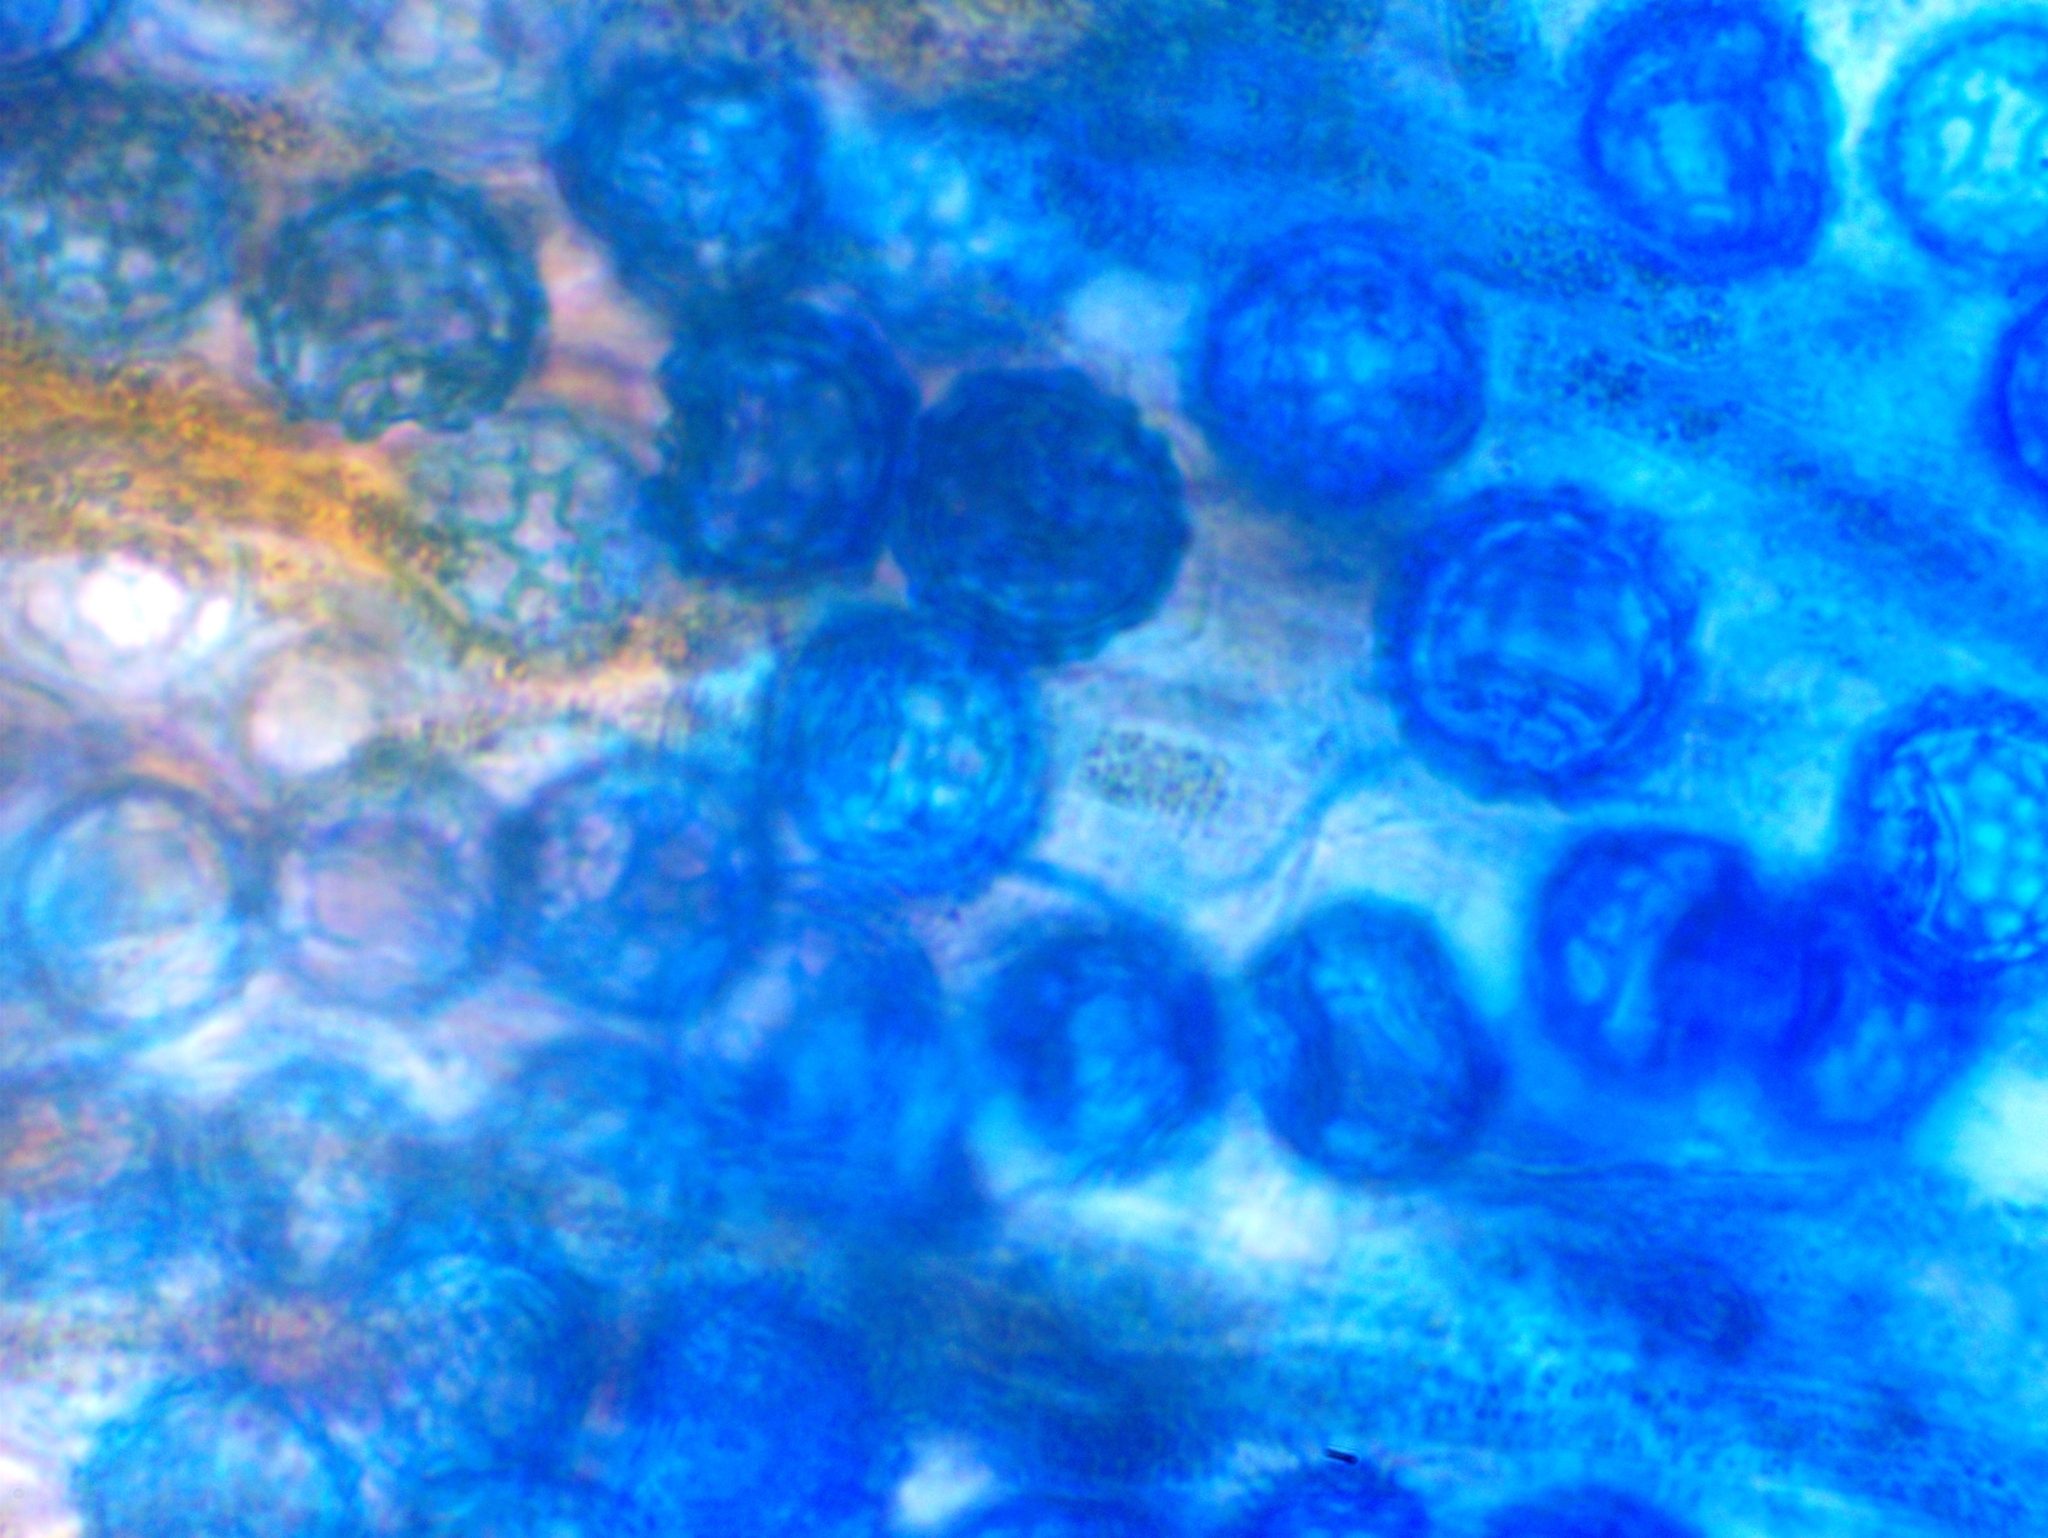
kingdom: Fungi
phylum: Ascomycota
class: Pezizomycetes
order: Pezizales
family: Pyronemataceae
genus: Octospora
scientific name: Octospora feurichiana
